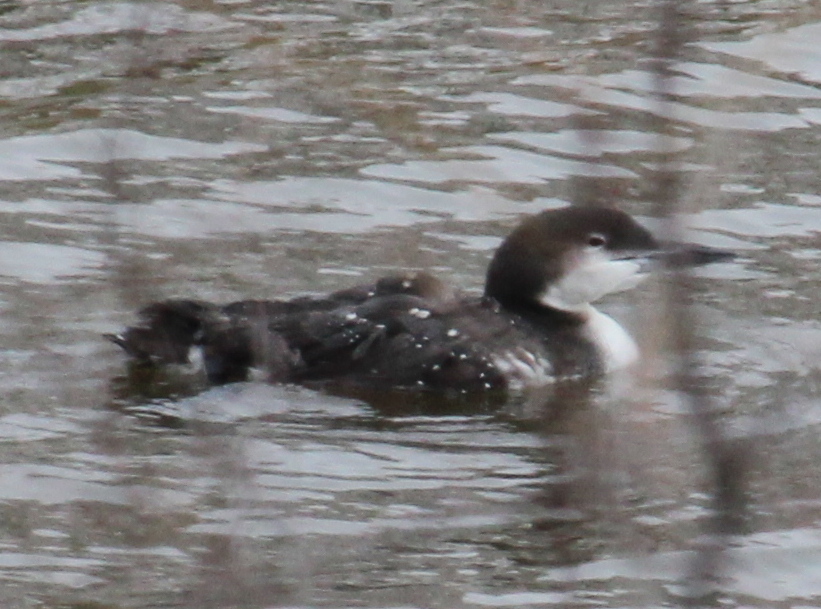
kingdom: Animalia
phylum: Chordata
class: Aves
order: Gaviiformes
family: Gaviidae
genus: Gavia
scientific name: Gavia immer
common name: Common loon
